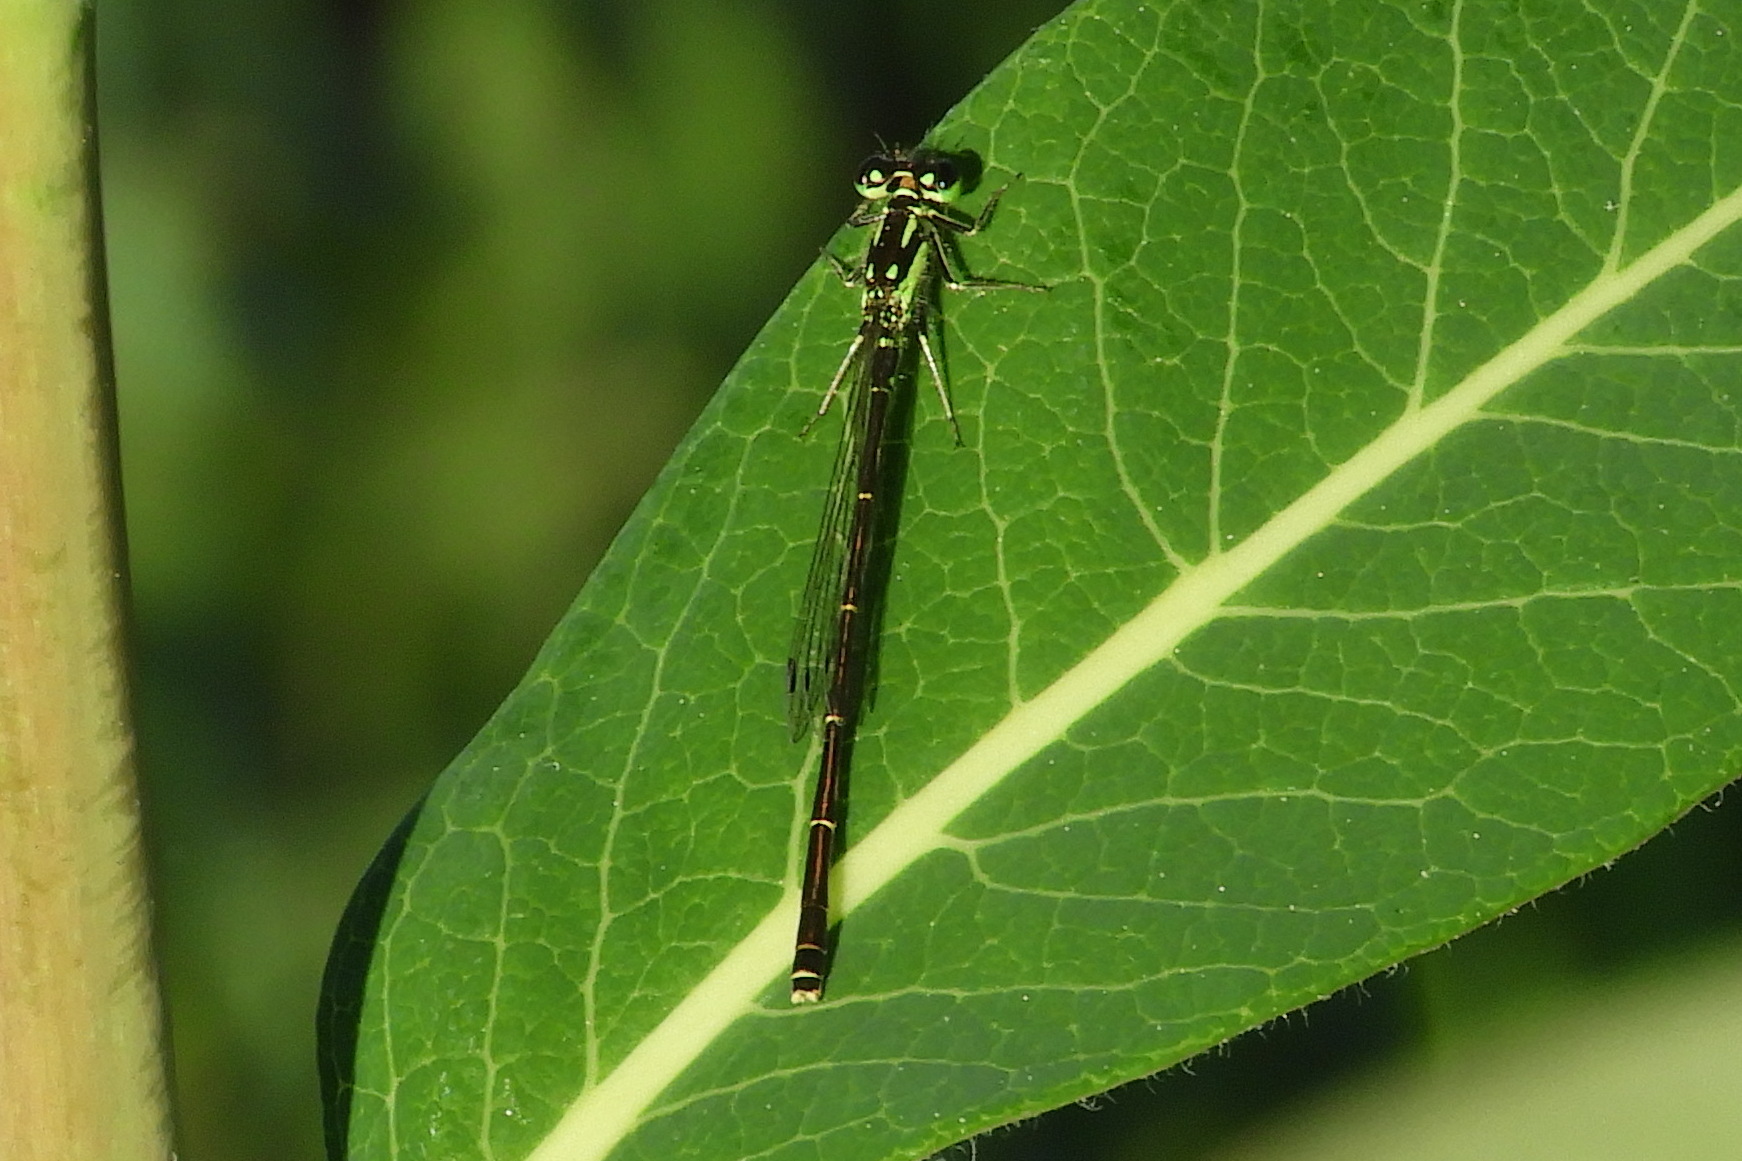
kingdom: Animalia
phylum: Arthropoda
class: Insecta
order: Odonata
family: Coenagrionidae
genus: Ischnura
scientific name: Ischnura posita
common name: Fragile forktail
